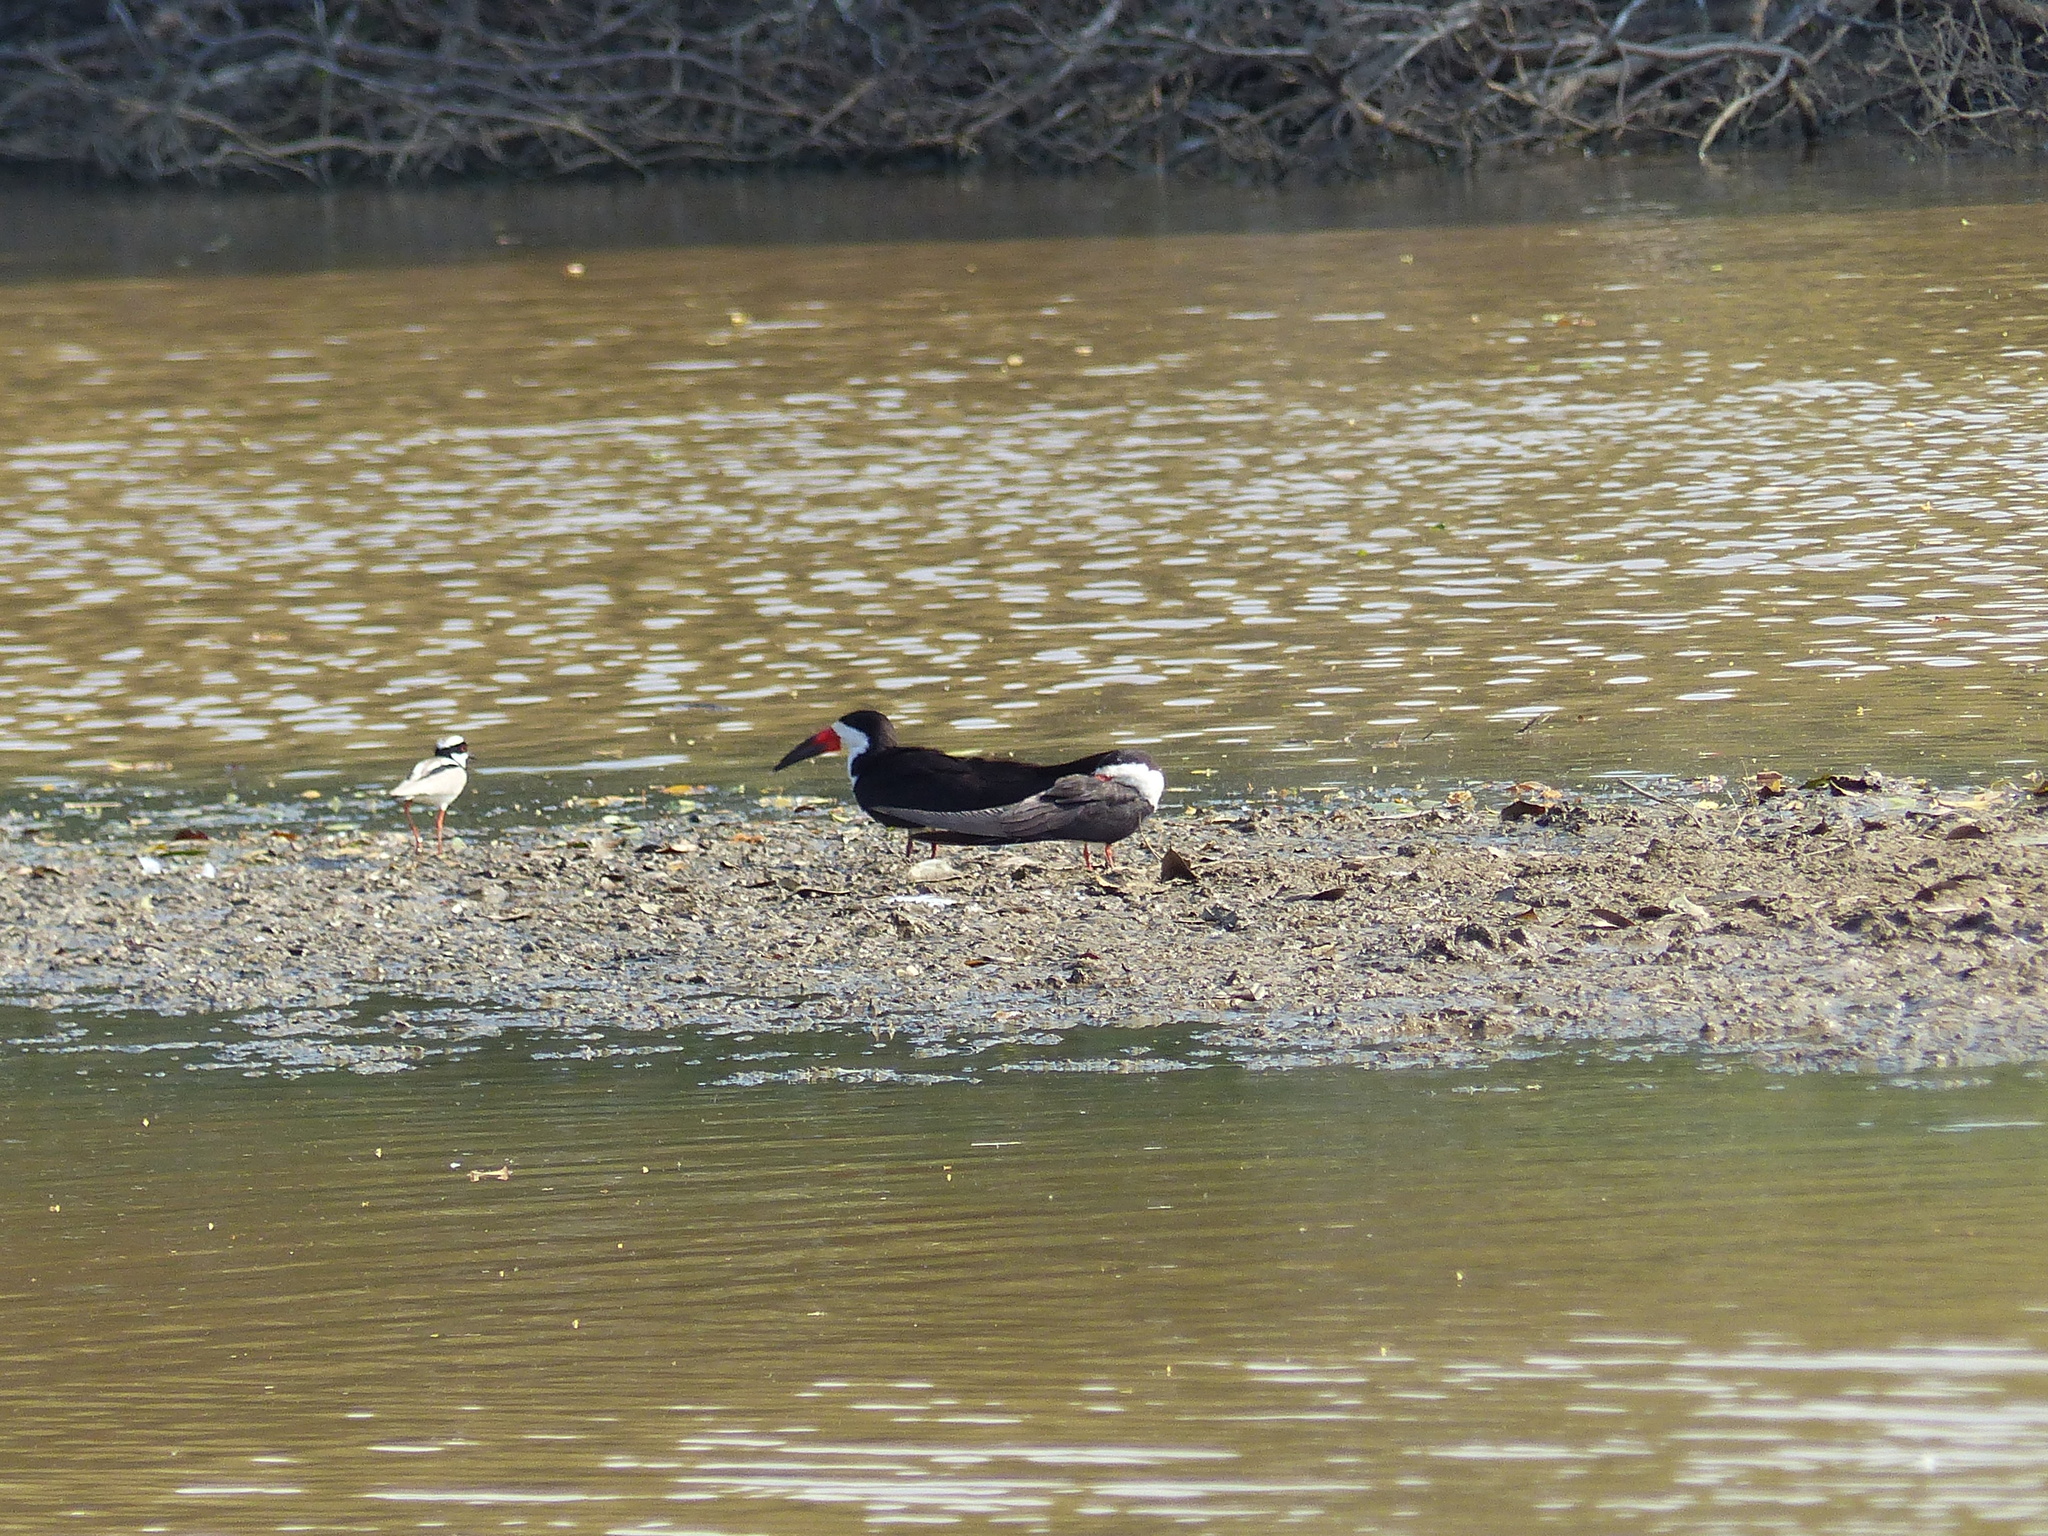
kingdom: Animalia
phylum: Chordata
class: Aves
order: Charadriiformes
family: Laridae
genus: Rynchops
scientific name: Rynchops niger
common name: Black skimmer
